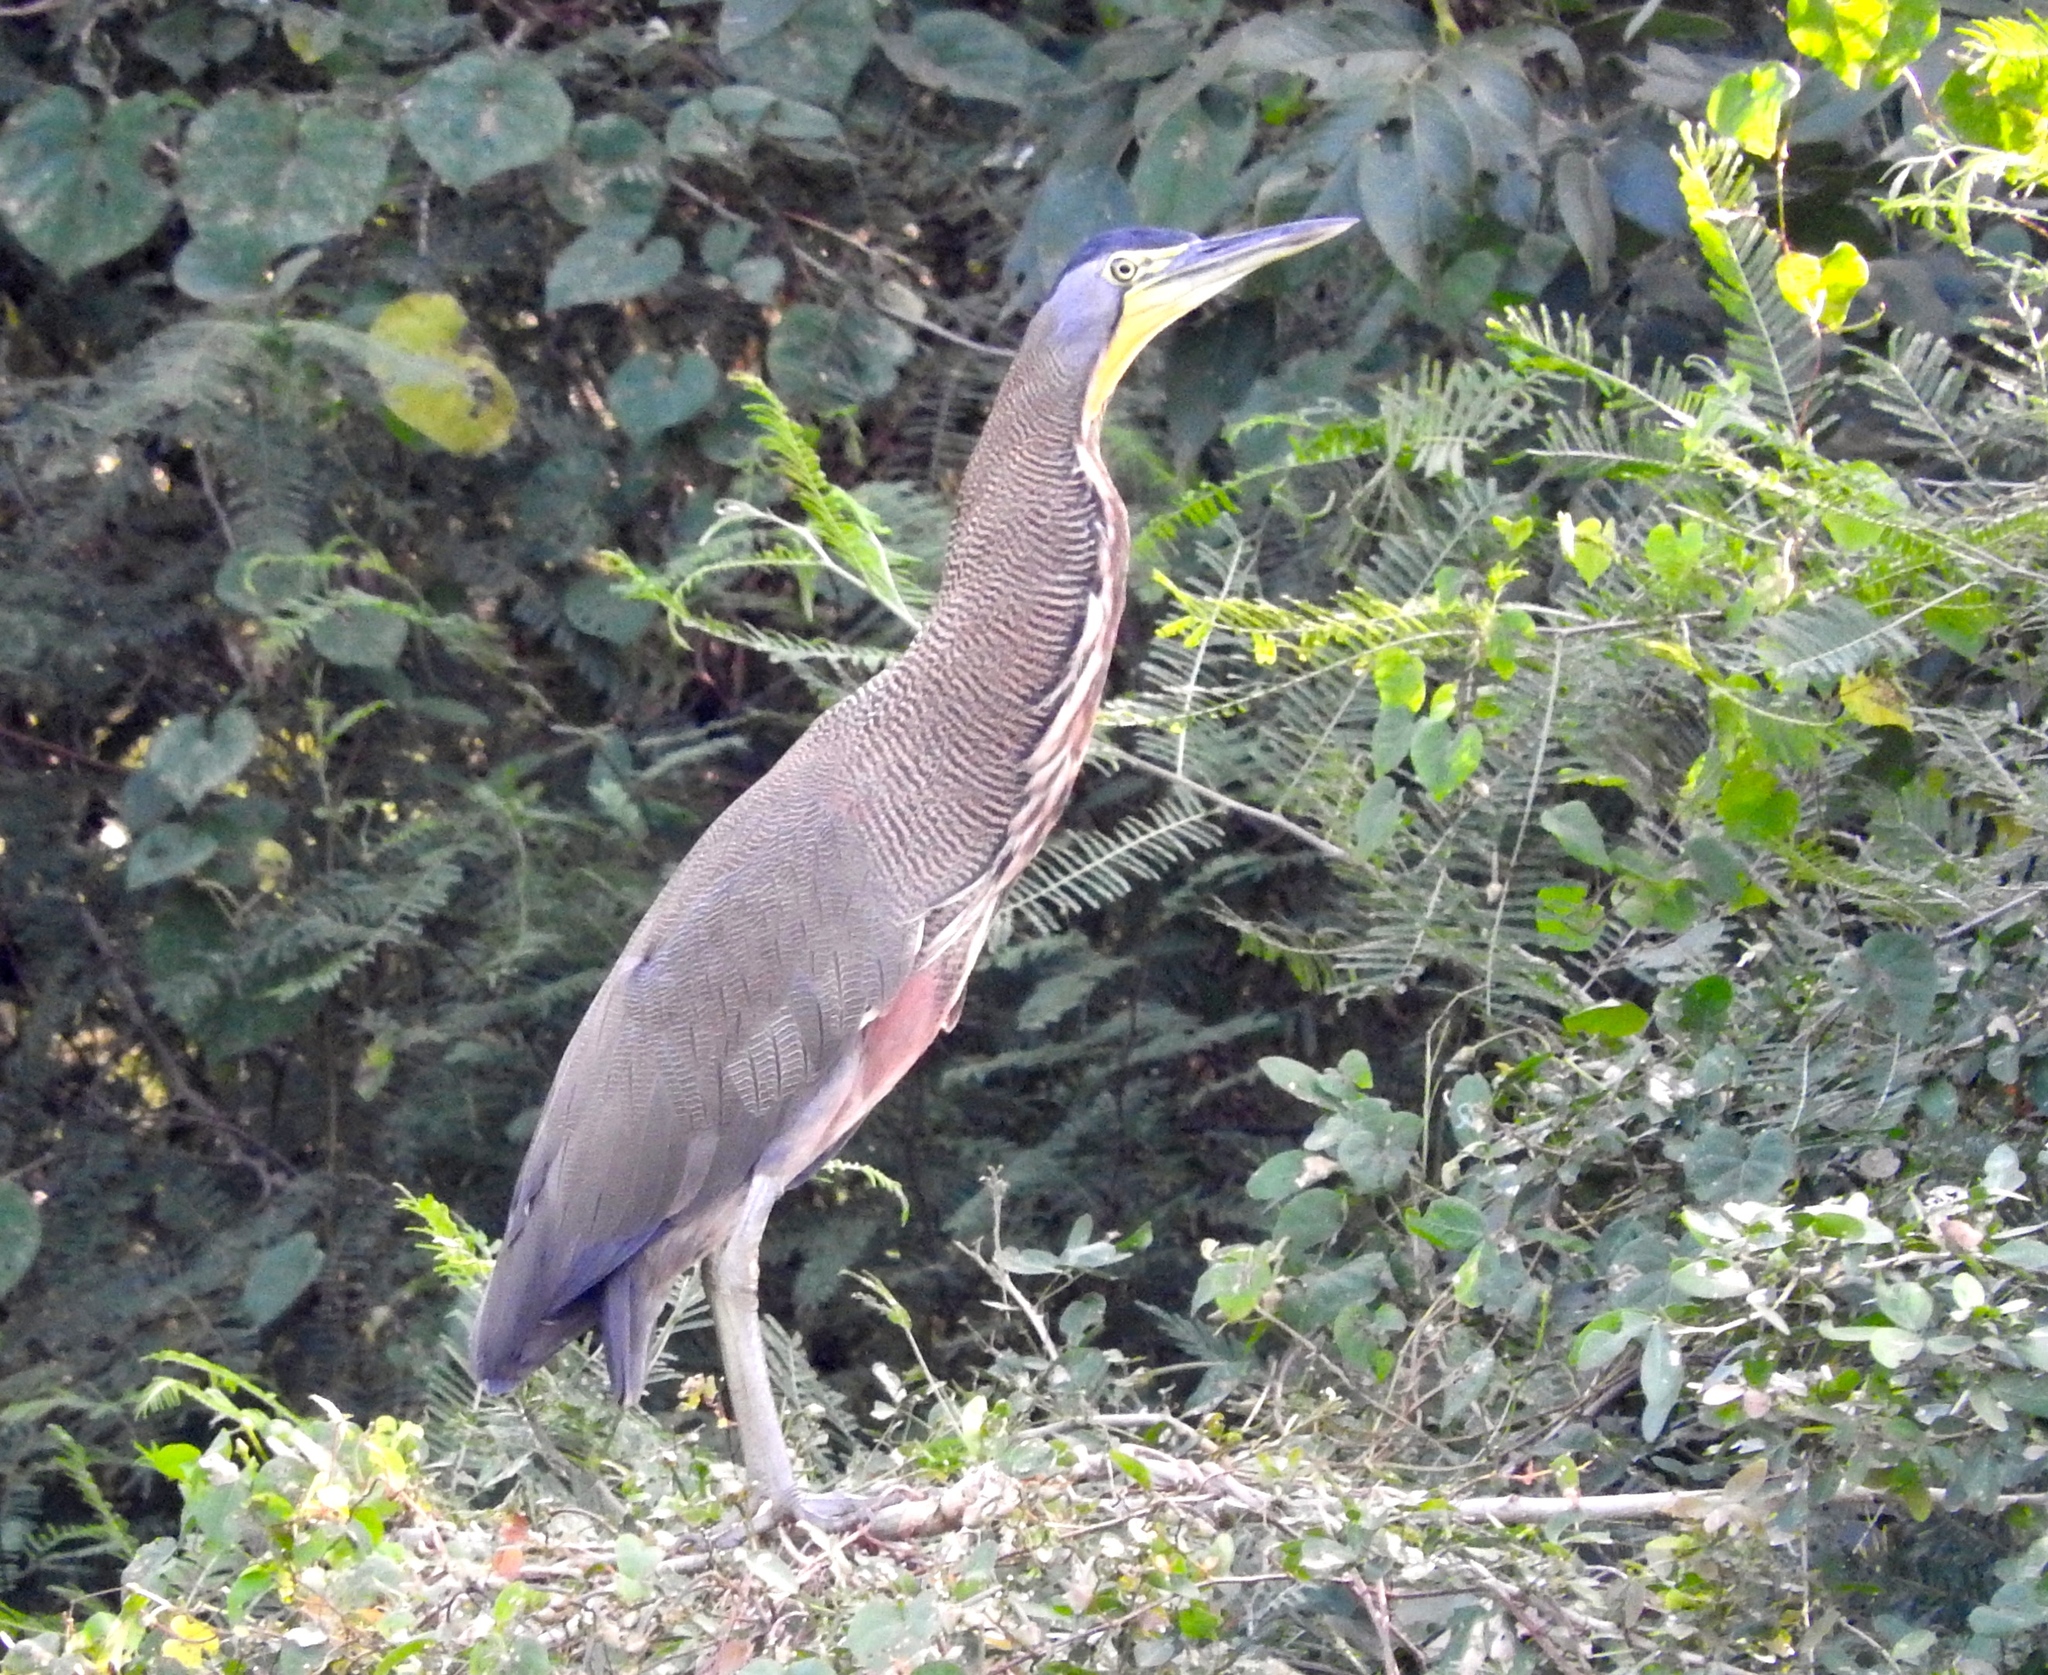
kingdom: Animalia
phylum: Chordata
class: Aves
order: Pelecaniformes
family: Ardeidae
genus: Tigrisoma
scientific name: Tigrisoma mexicanum
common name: Bare-throated tiger-heron
